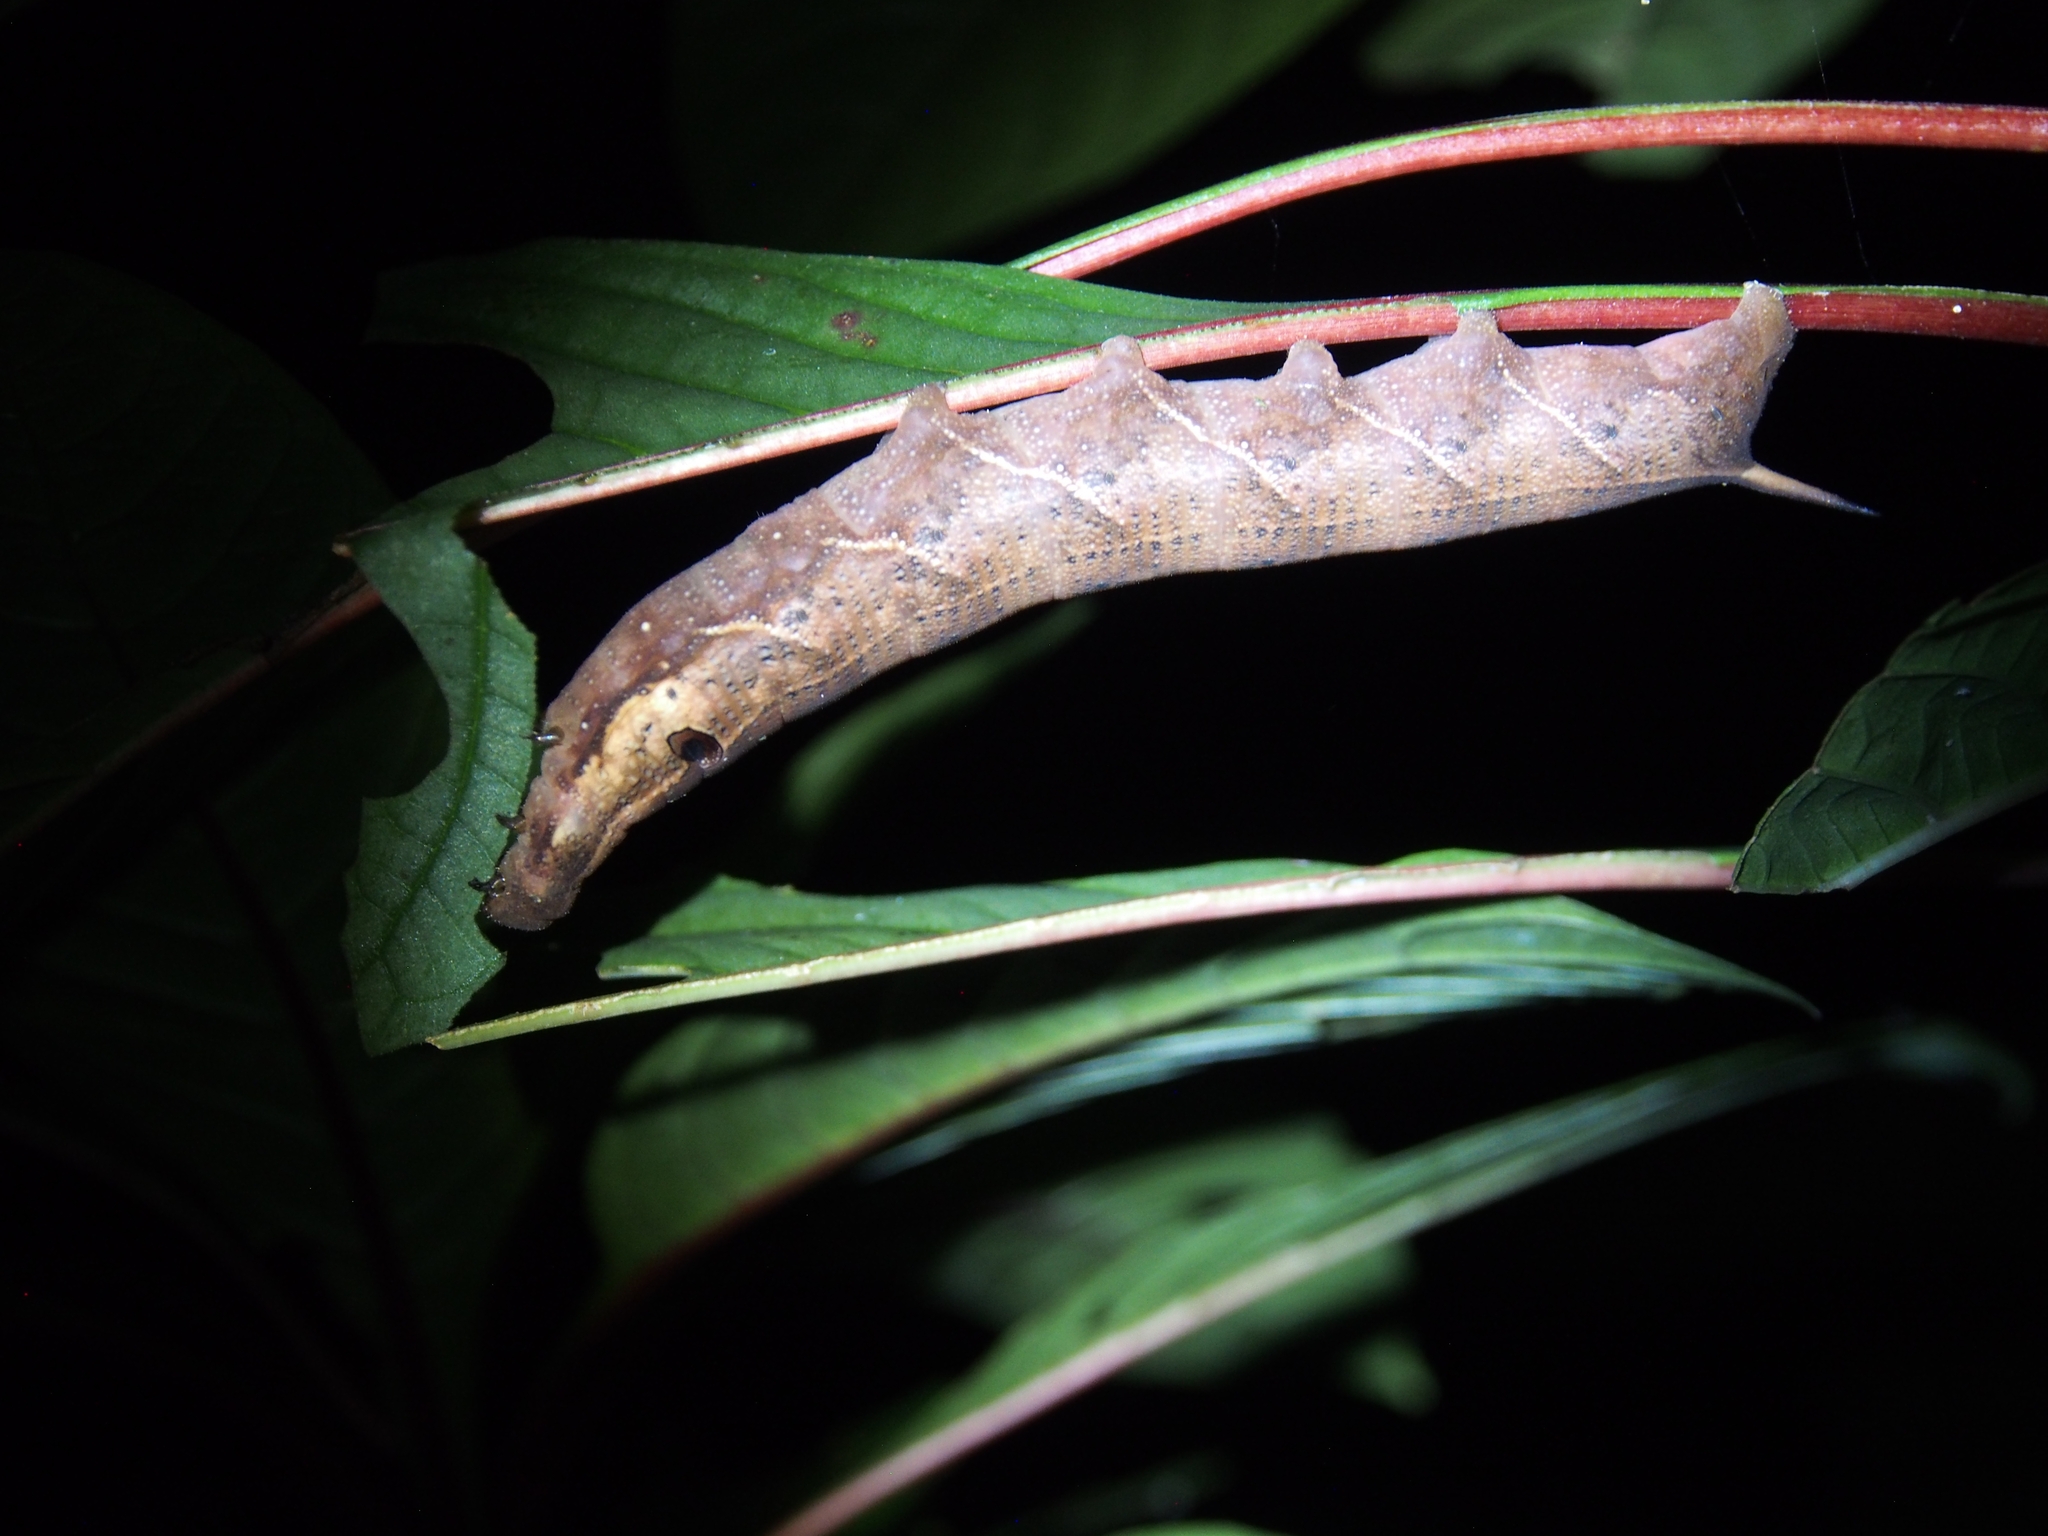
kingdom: Animalia
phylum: Arthropoda
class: Insecta
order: Lepidoptera
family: Sphingidae
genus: Xylophanes
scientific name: Xylophanes ceratomioides
